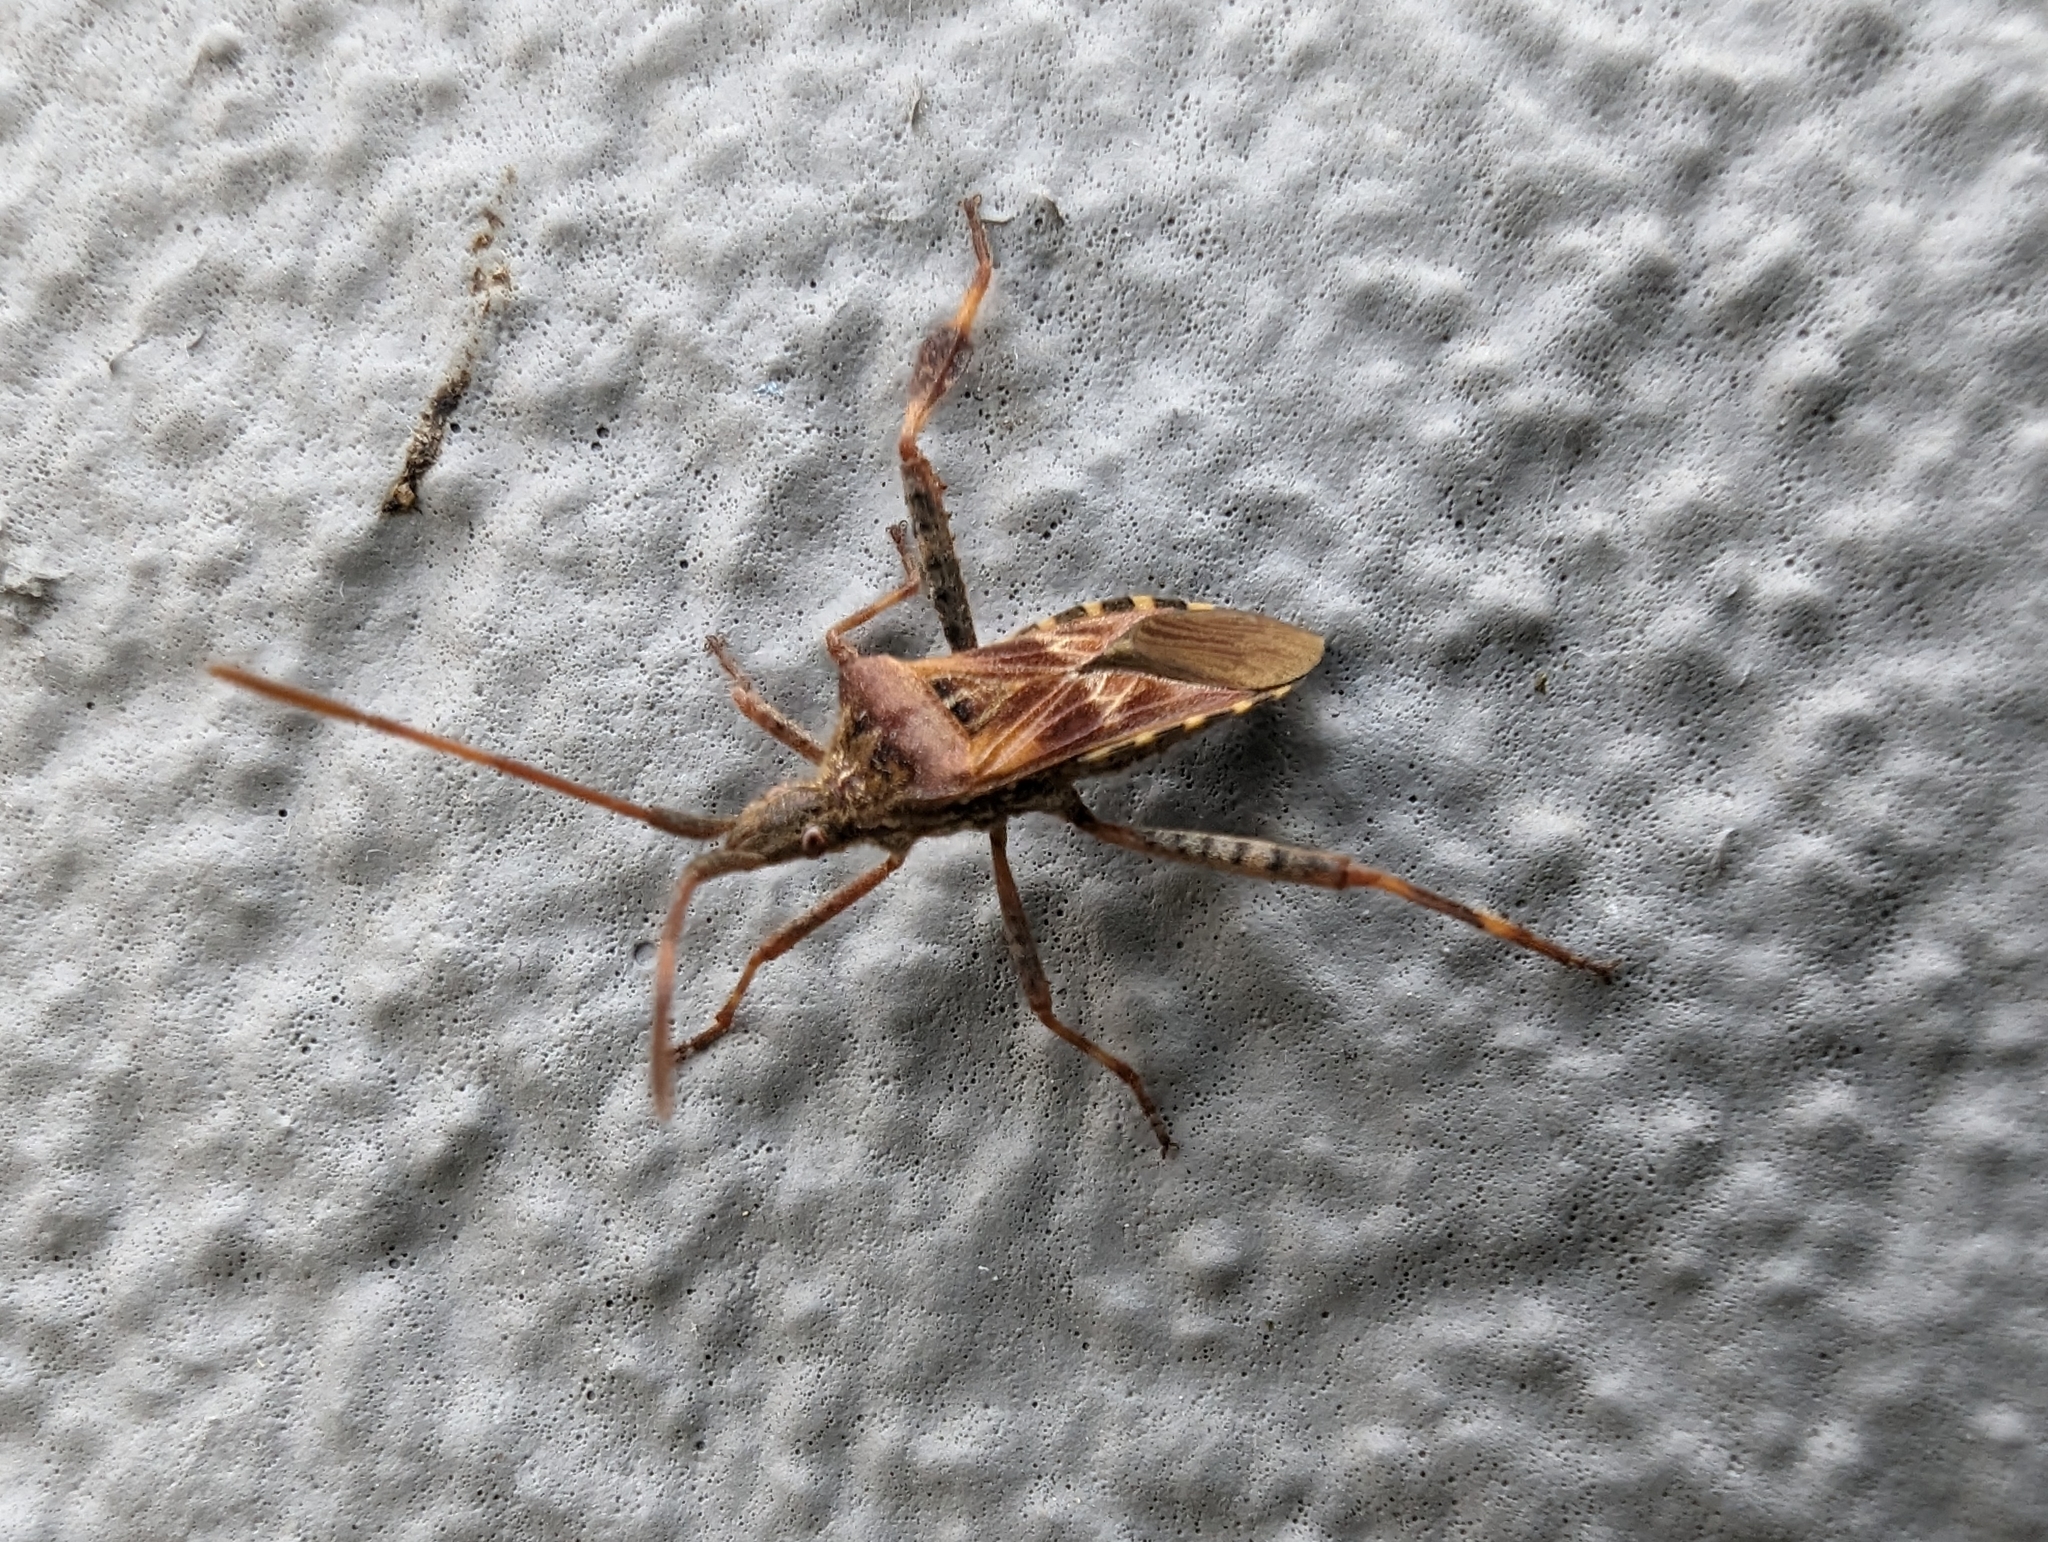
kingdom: Animalia
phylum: Arthropoda
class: Insecta
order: Hemiptera
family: Coreidae
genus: Leptoglossus
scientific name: Leptoglossus occidentalis
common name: Western conifer-seed bug
